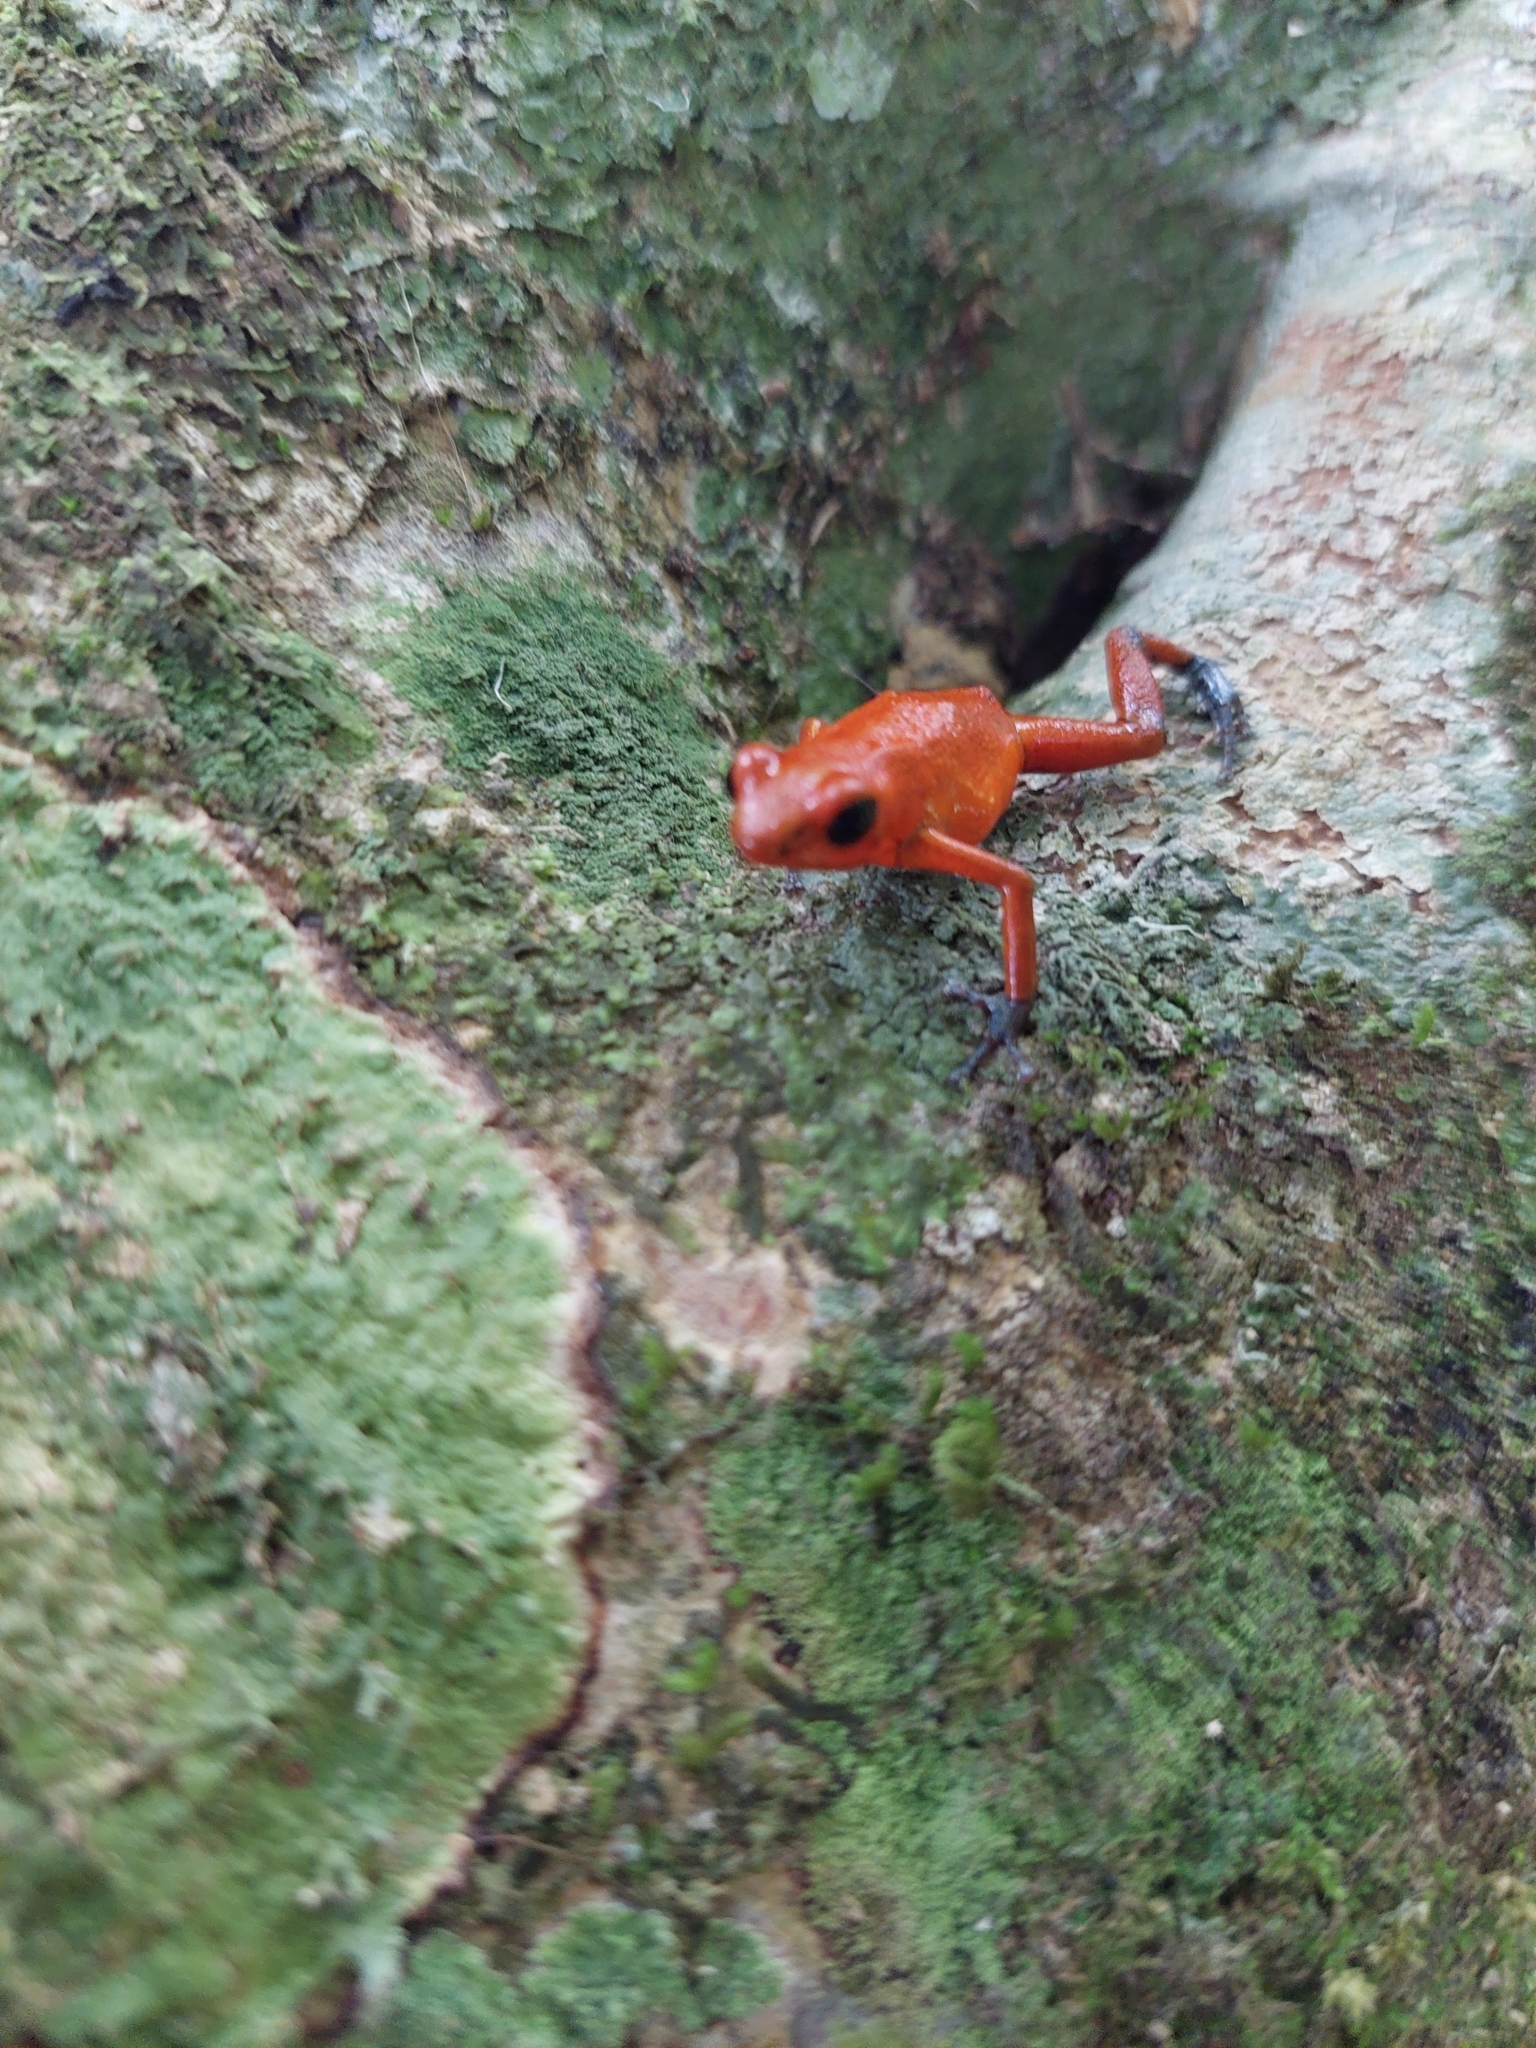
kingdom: Animalia
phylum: Chordata
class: Amphibia
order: Anura
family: Dendrobatidae
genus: Oophaga
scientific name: Oophaga pumilio
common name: Flaming poison frog
